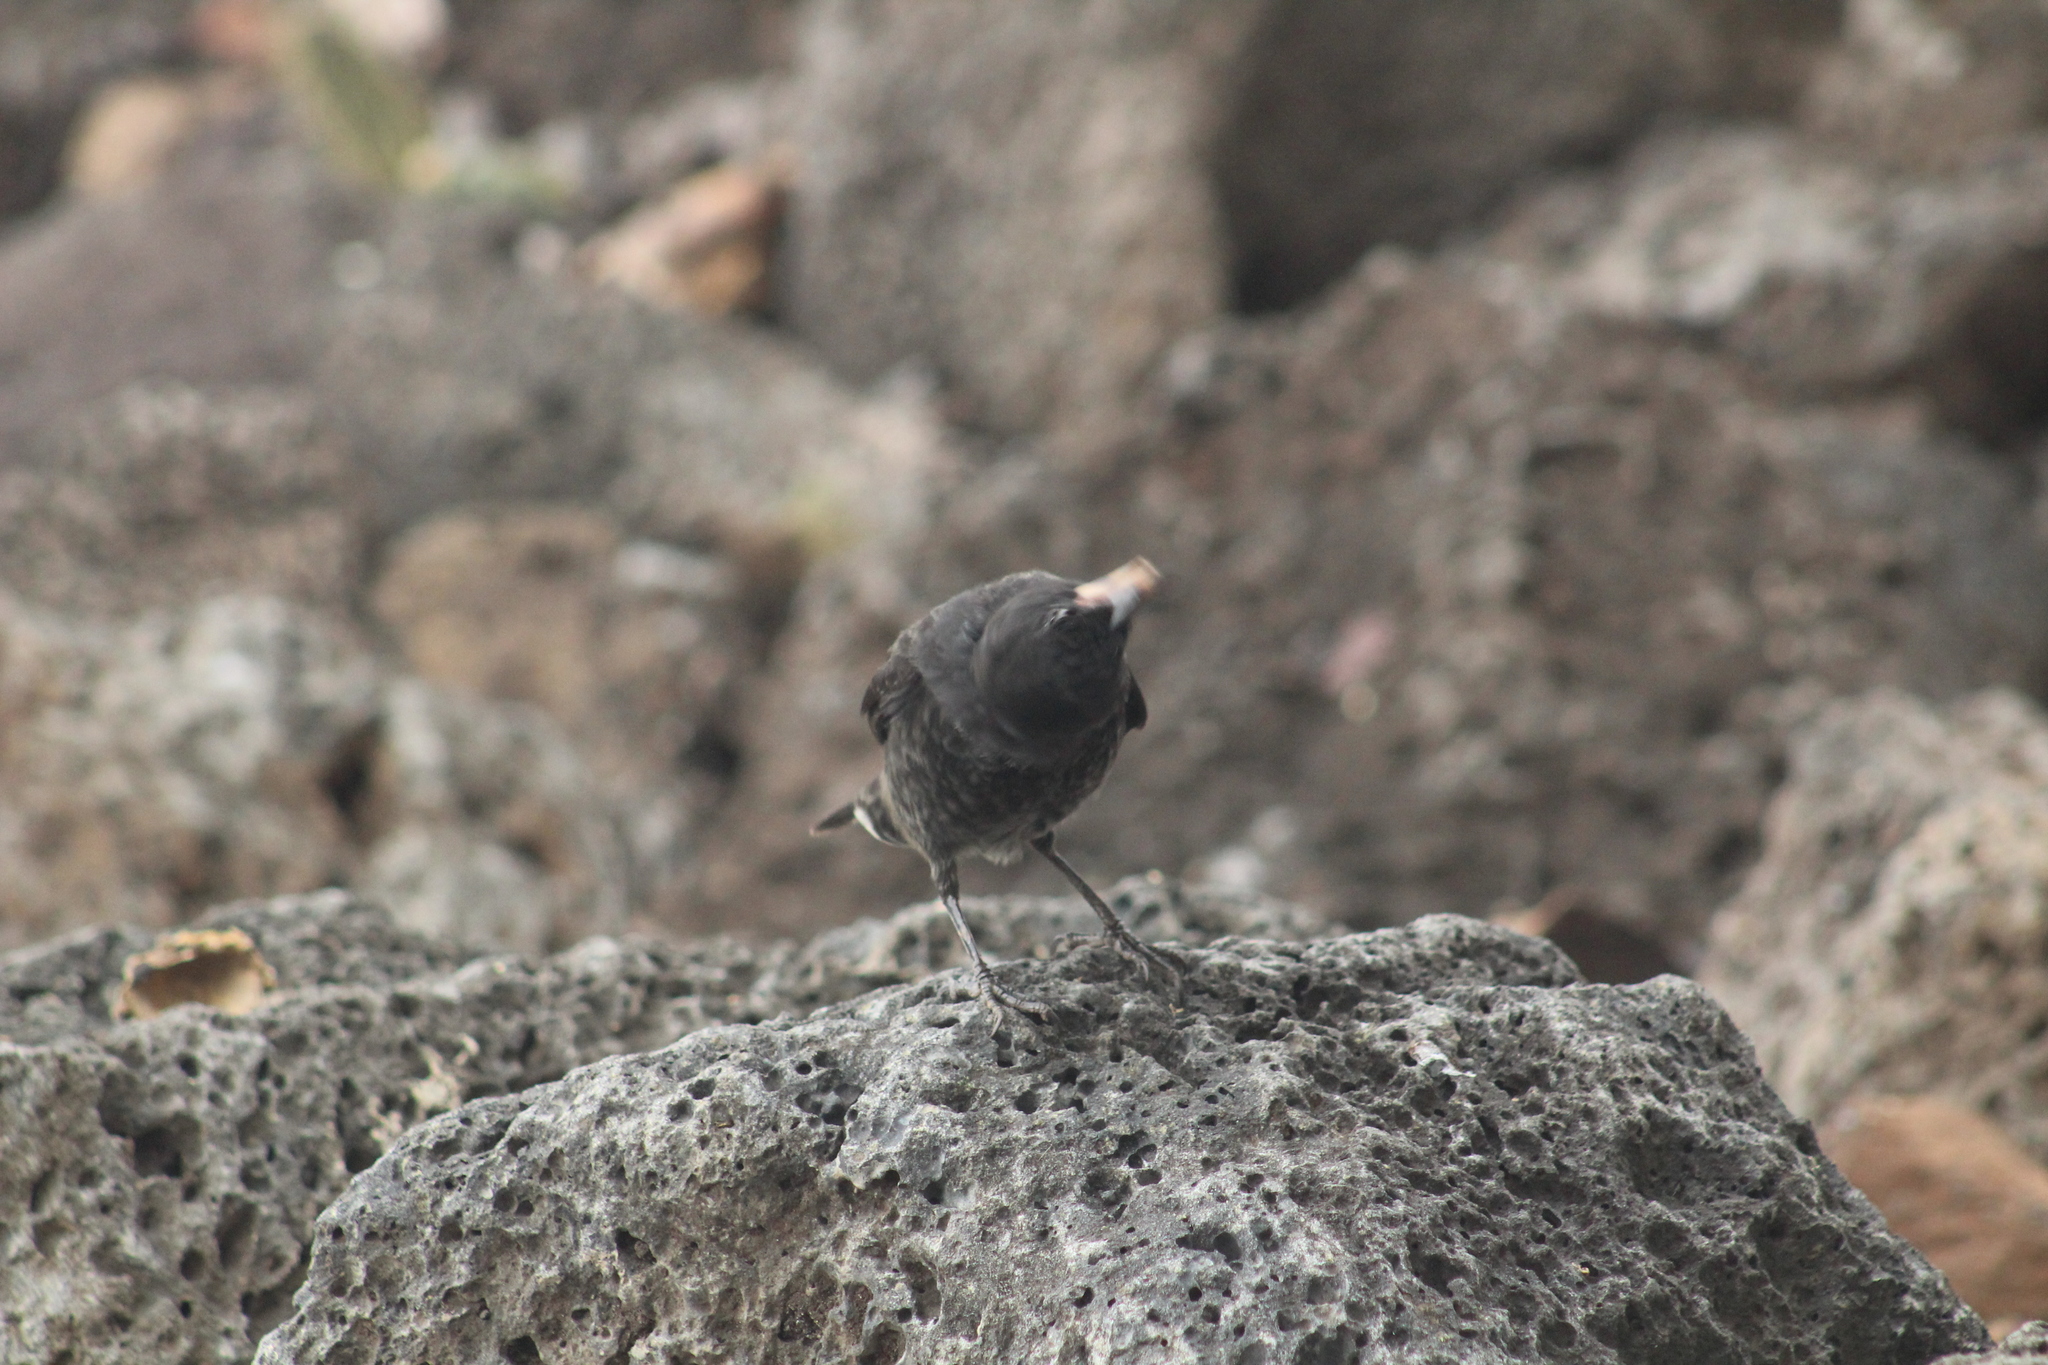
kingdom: Animalia
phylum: Chordata
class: Aves
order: Passeriformes
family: Thraupidae
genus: Geospiza
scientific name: Geospiza fortis
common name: Medium ground finch
